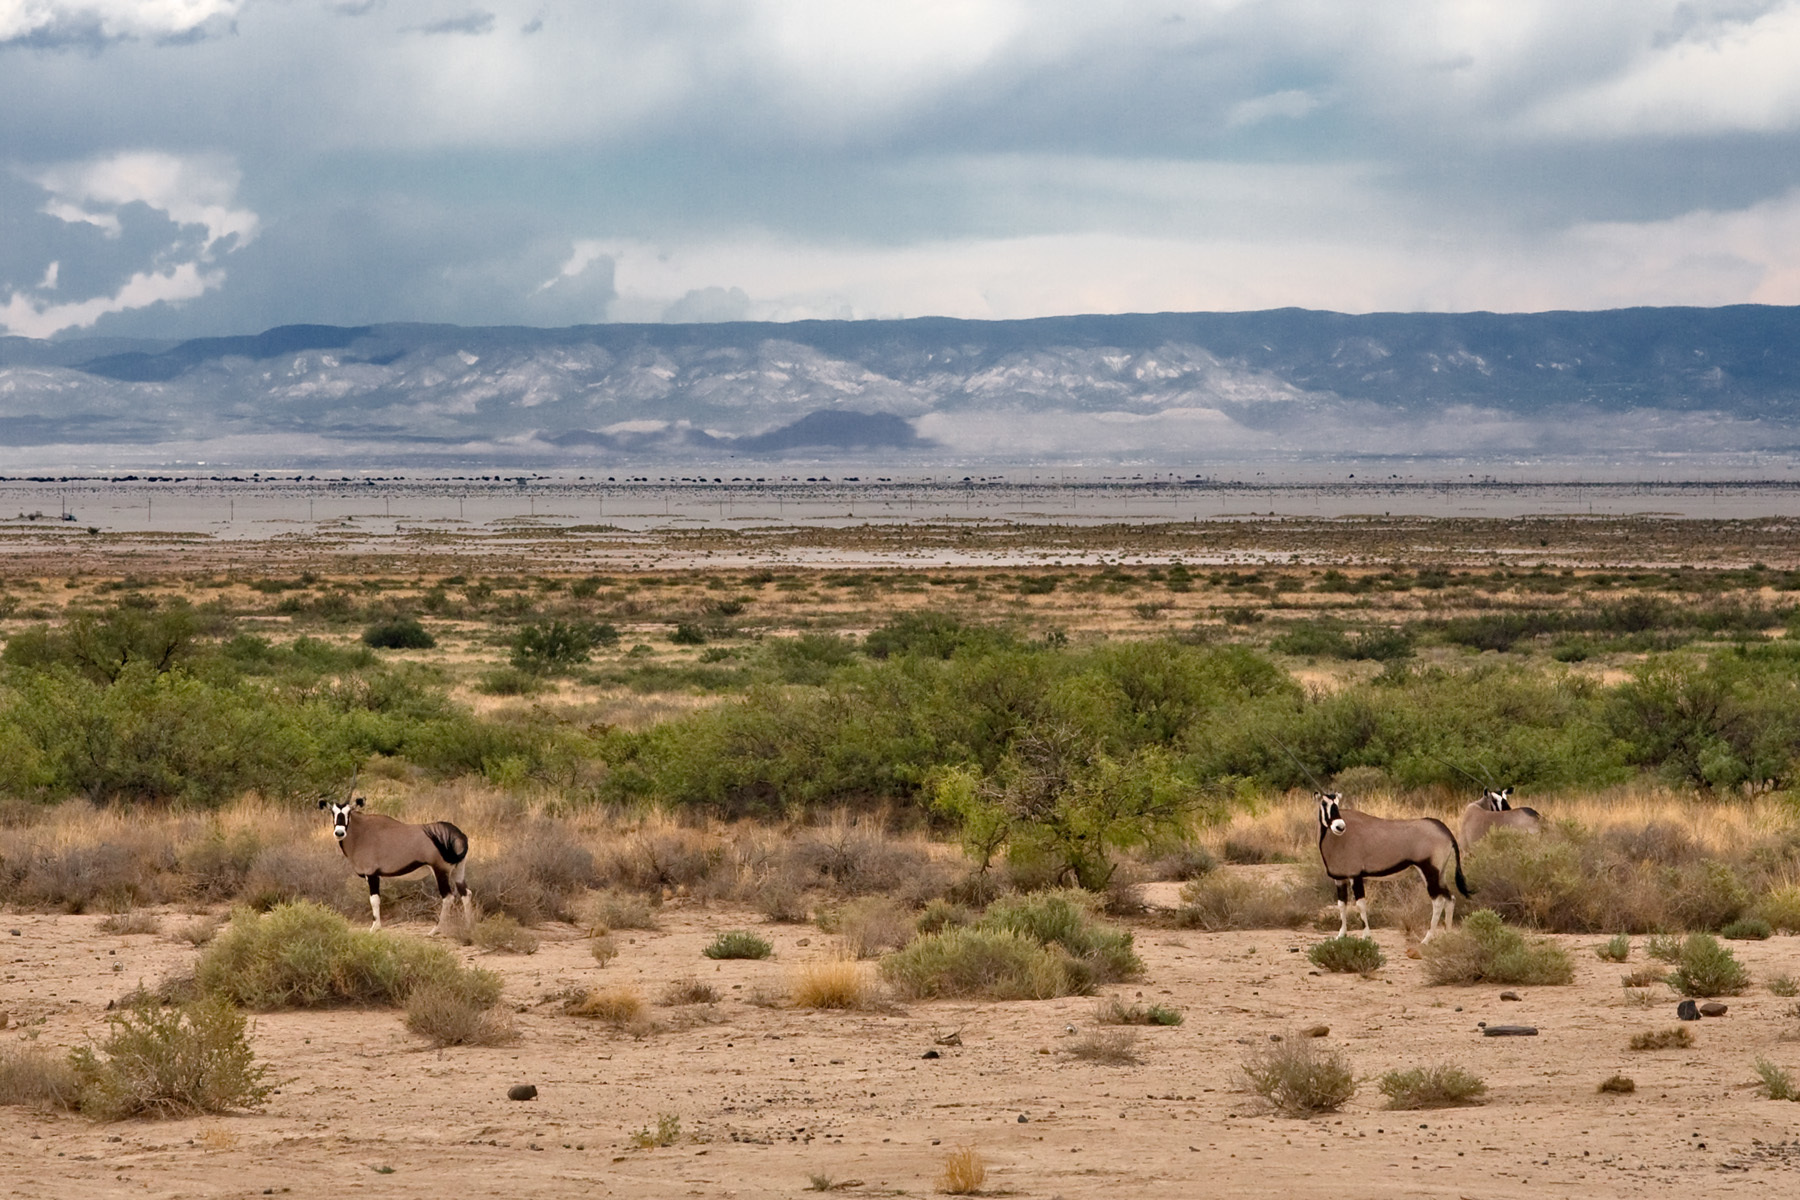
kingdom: Animalia
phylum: Chordata
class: Mammalia
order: Artiodactyla
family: Bovidae
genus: Oryx
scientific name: Oryx gazella
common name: Gemsbok
